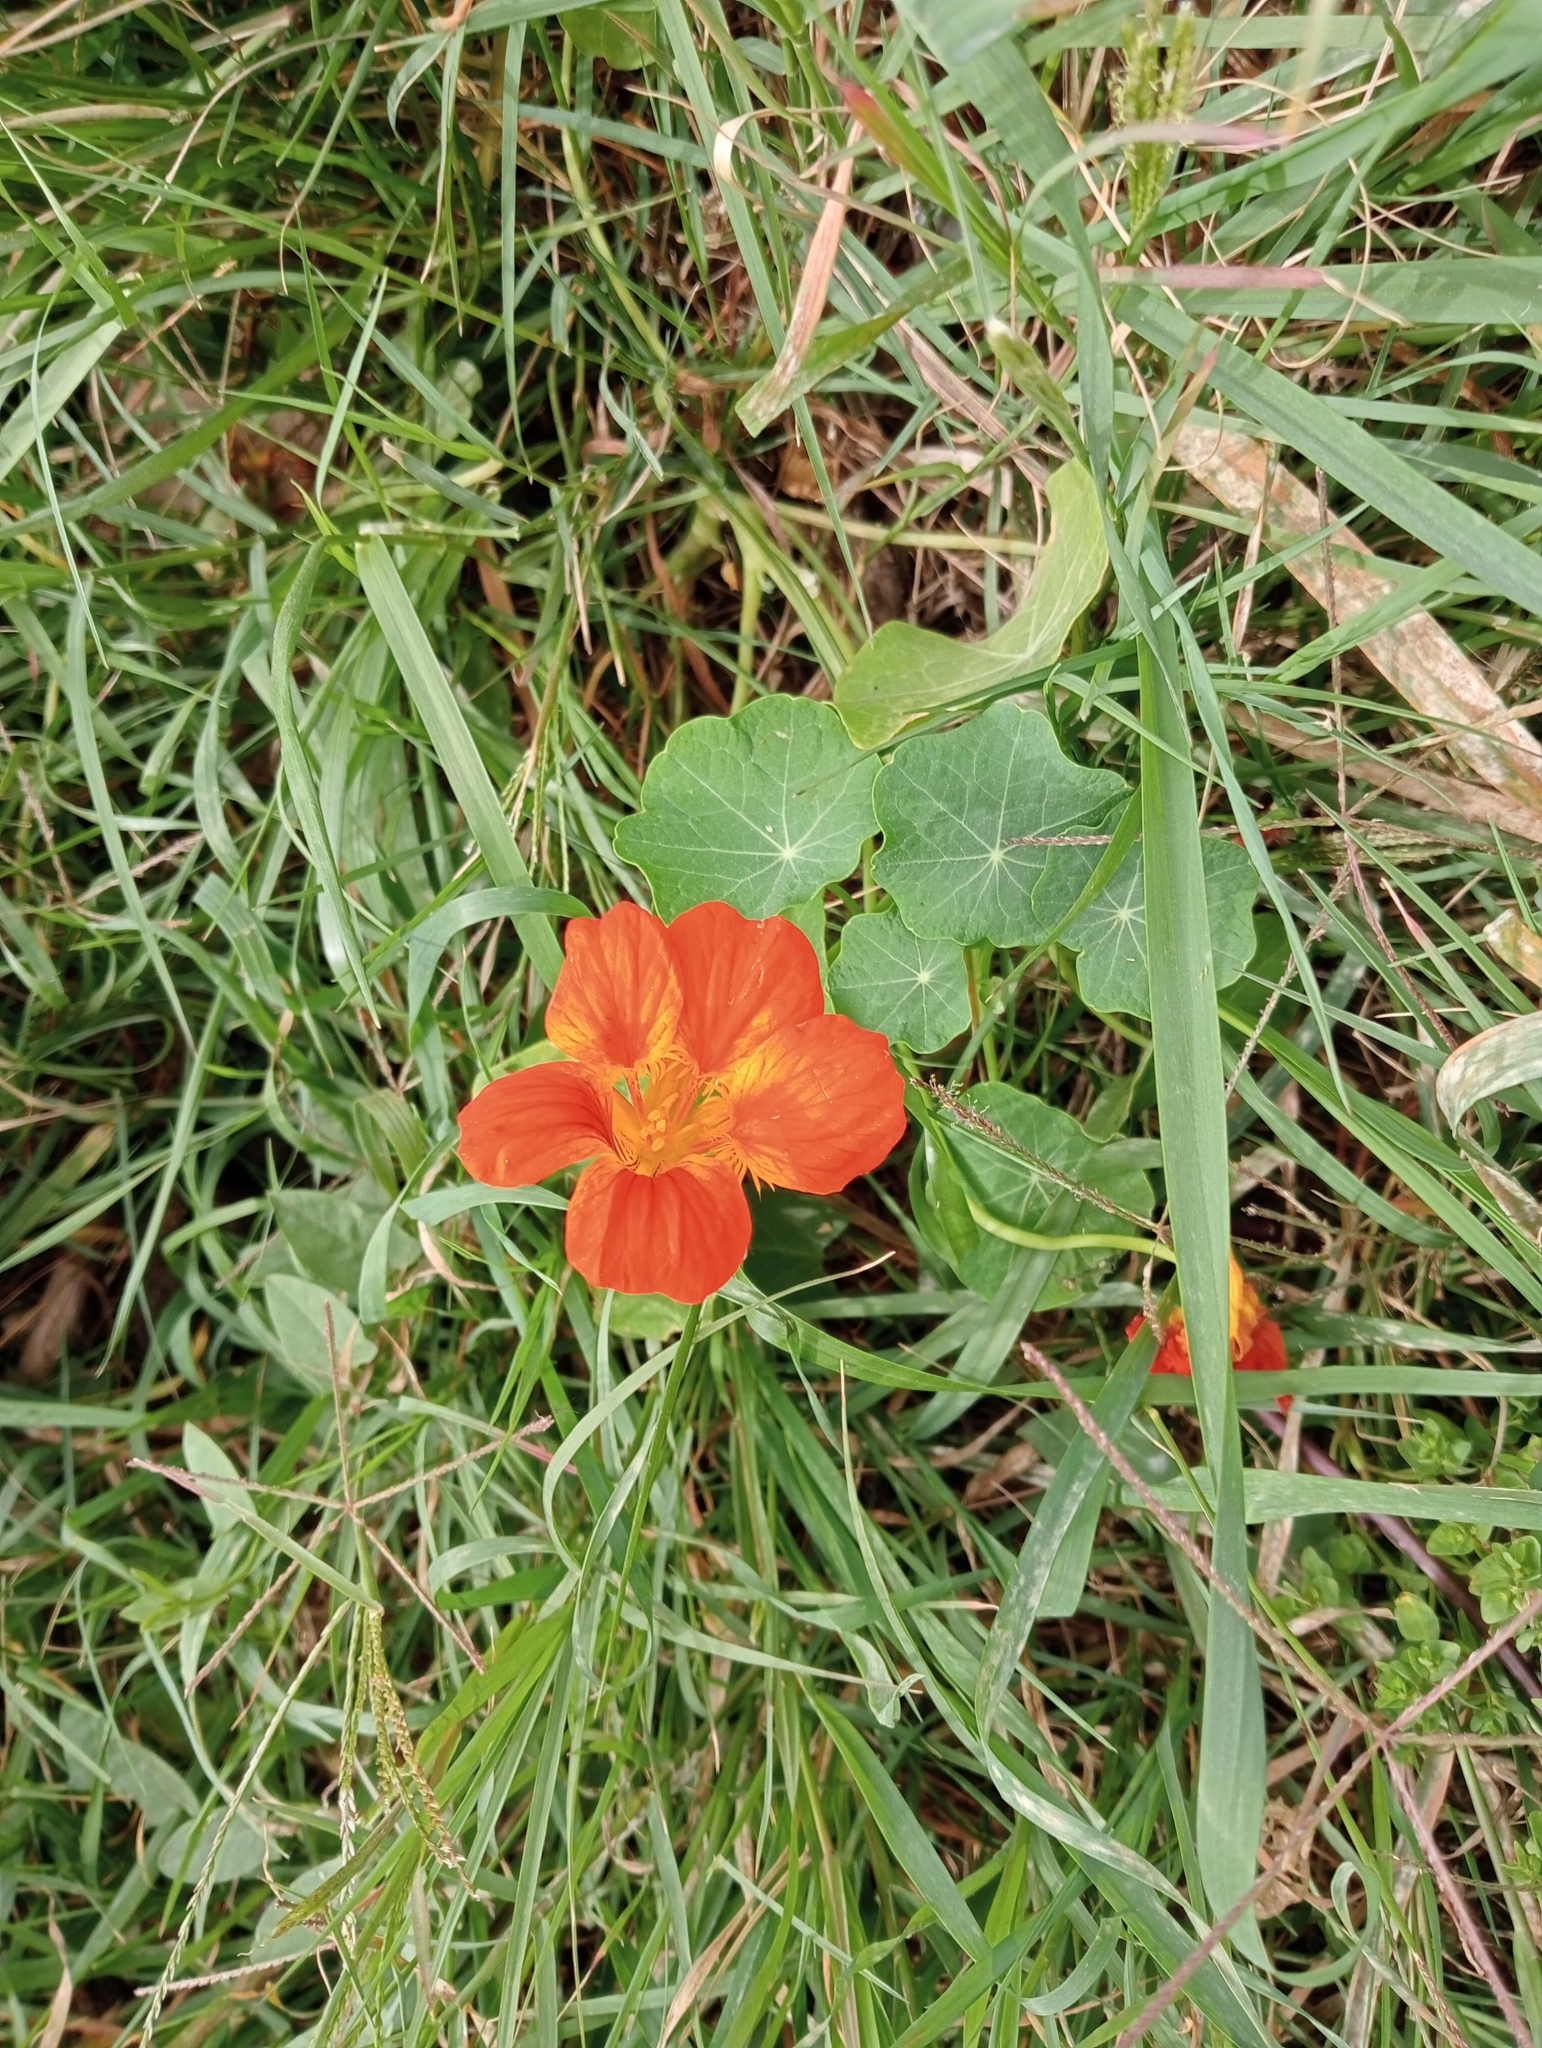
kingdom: Plantae
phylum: Tracheophyta
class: Magnoliopsida
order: Brassicales
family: Tropaeolaceae
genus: Tropaeolum
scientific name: Tropaeolum majus
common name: Nasturtium
